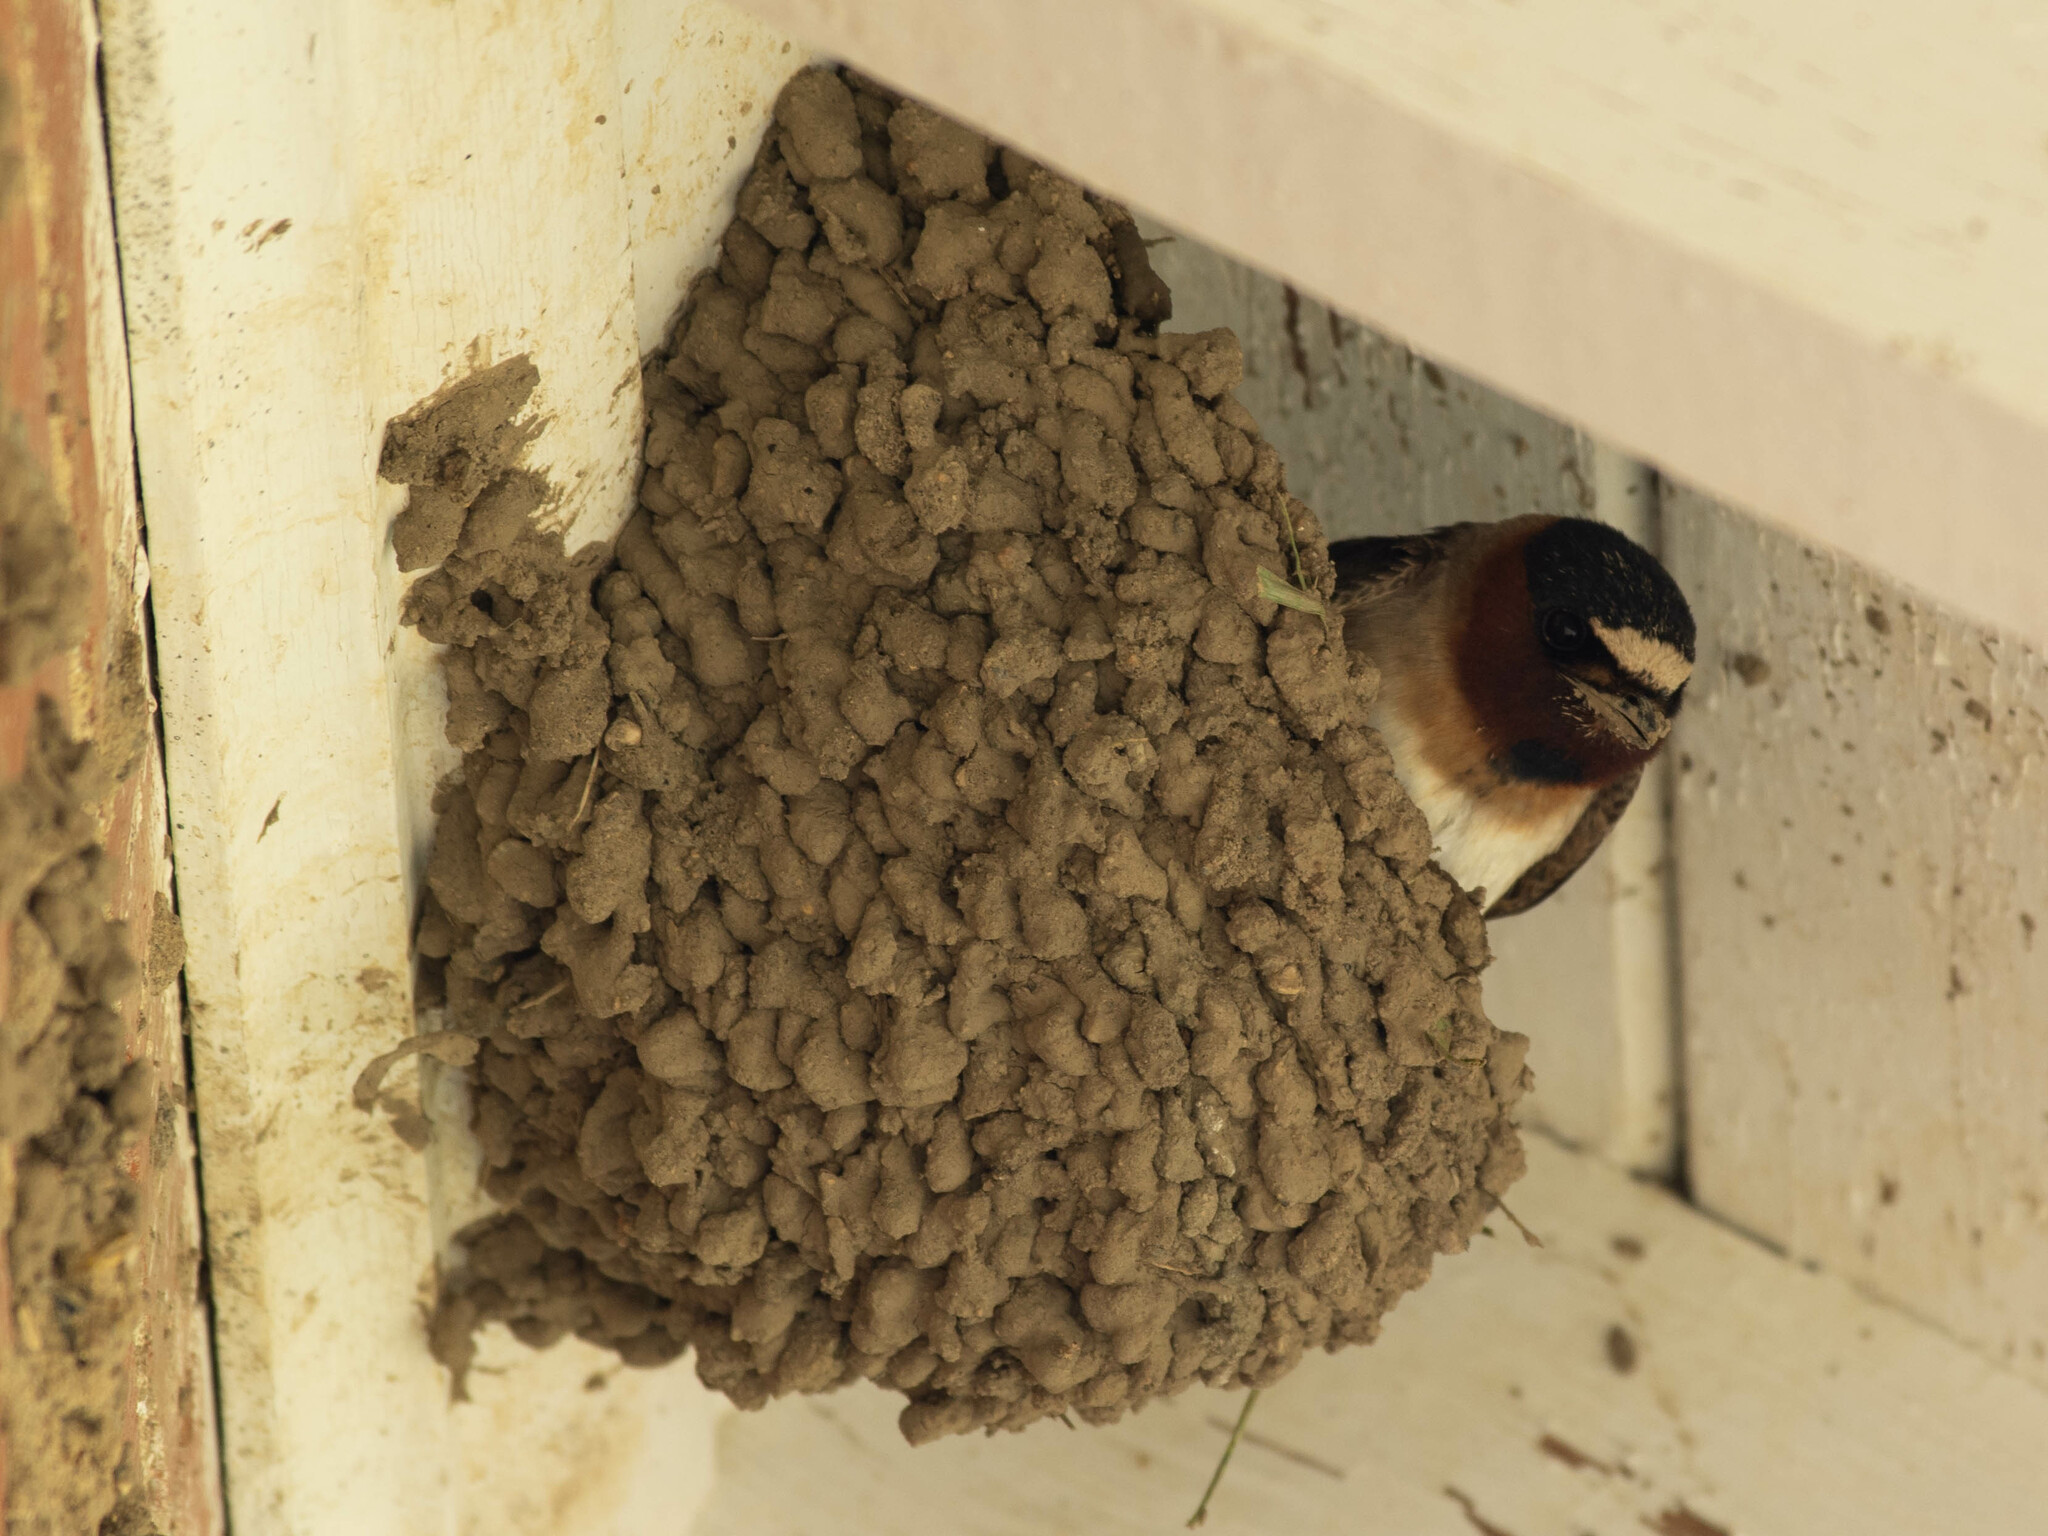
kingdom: Animalia
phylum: Chordata
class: Aves
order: Passeriformes
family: Hirundinidae
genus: Petrochelidon
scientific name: Petrochelidon pyrrhonota
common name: American cliff swallow
